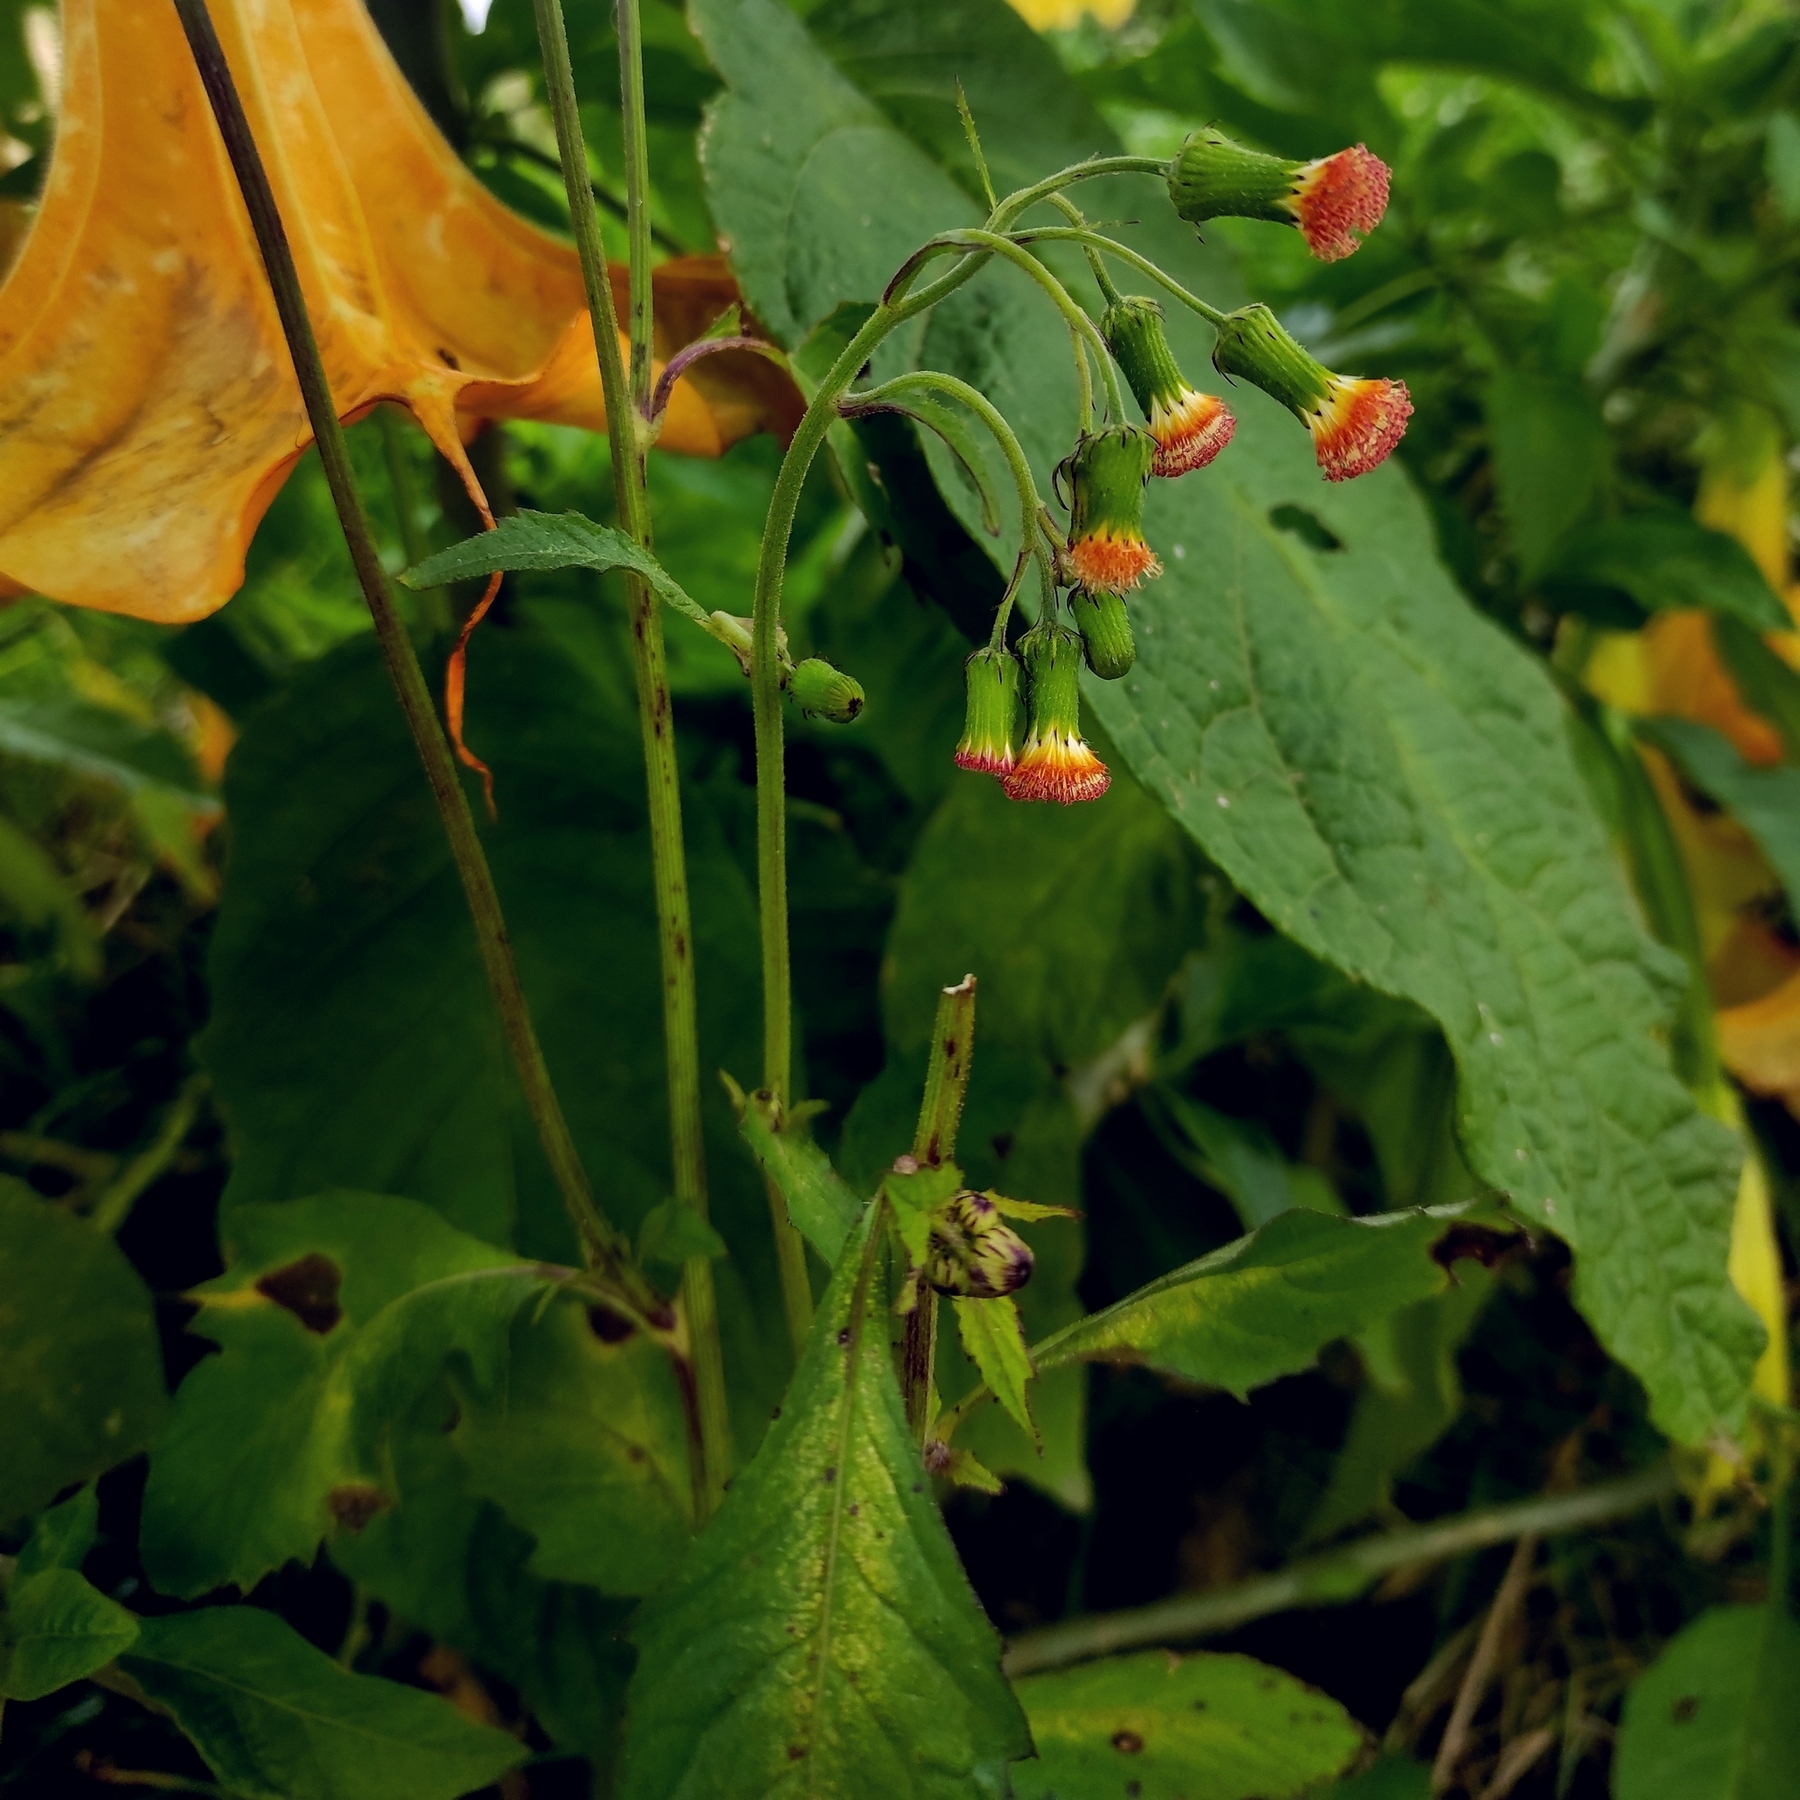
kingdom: Plantae
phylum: Tracheophyta
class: Magnoliopsida
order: Asterales
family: Asteraceae
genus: Crassocephalum
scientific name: Crassocephalum crepidioides
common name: Redflower ragleaf
